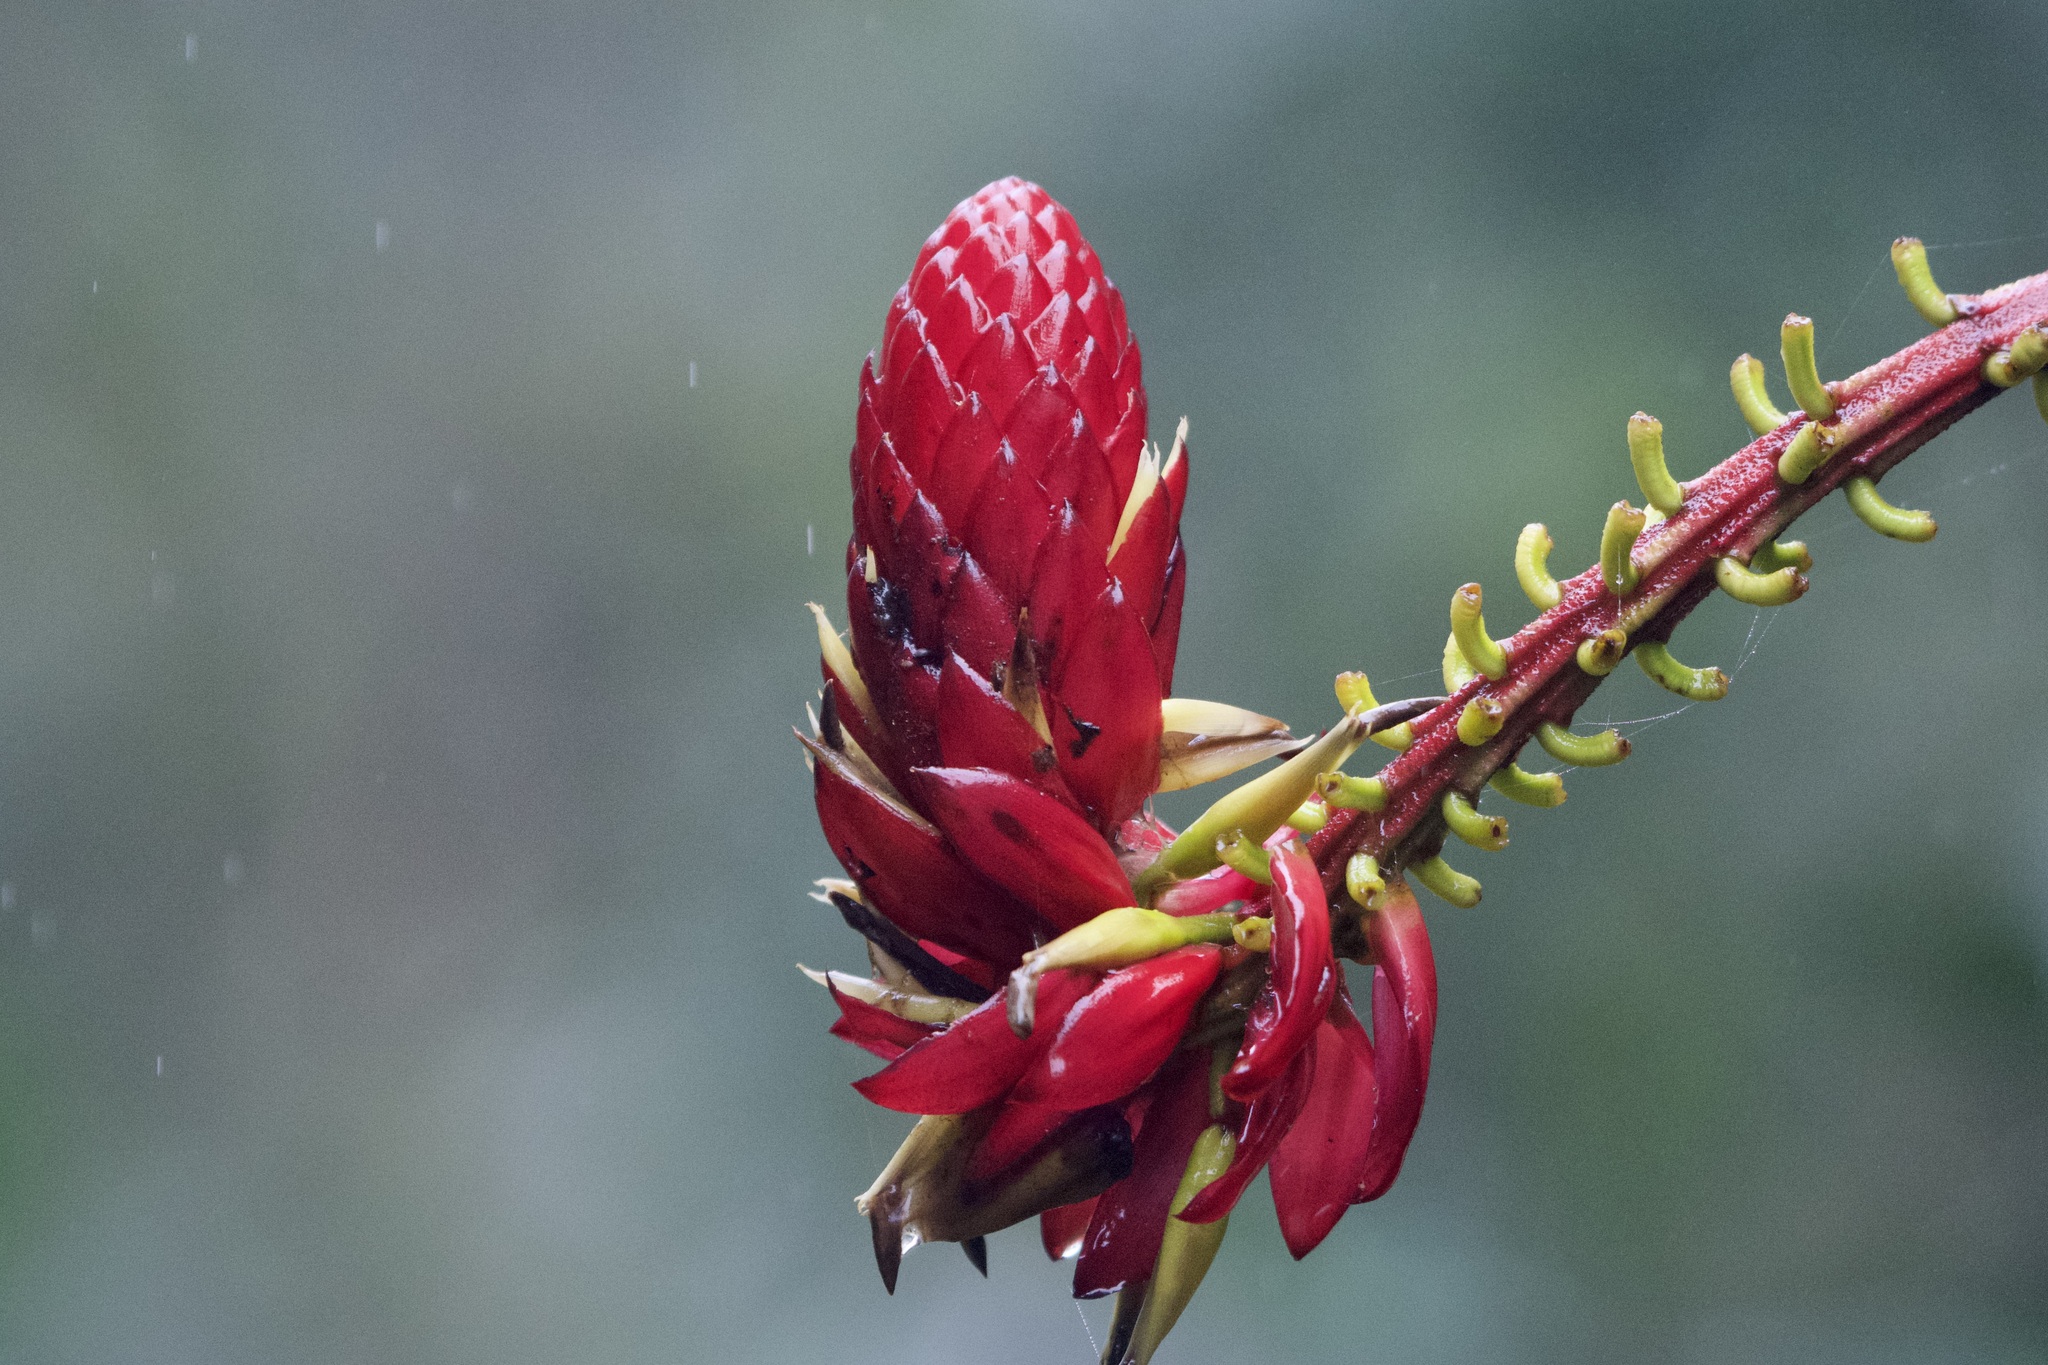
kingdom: Plantae
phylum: Tracheophyta
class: Liliopsida
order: Poales
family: Bromeliaceae
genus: Pitcairnia
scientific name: Pitcairnia kniphofioides
